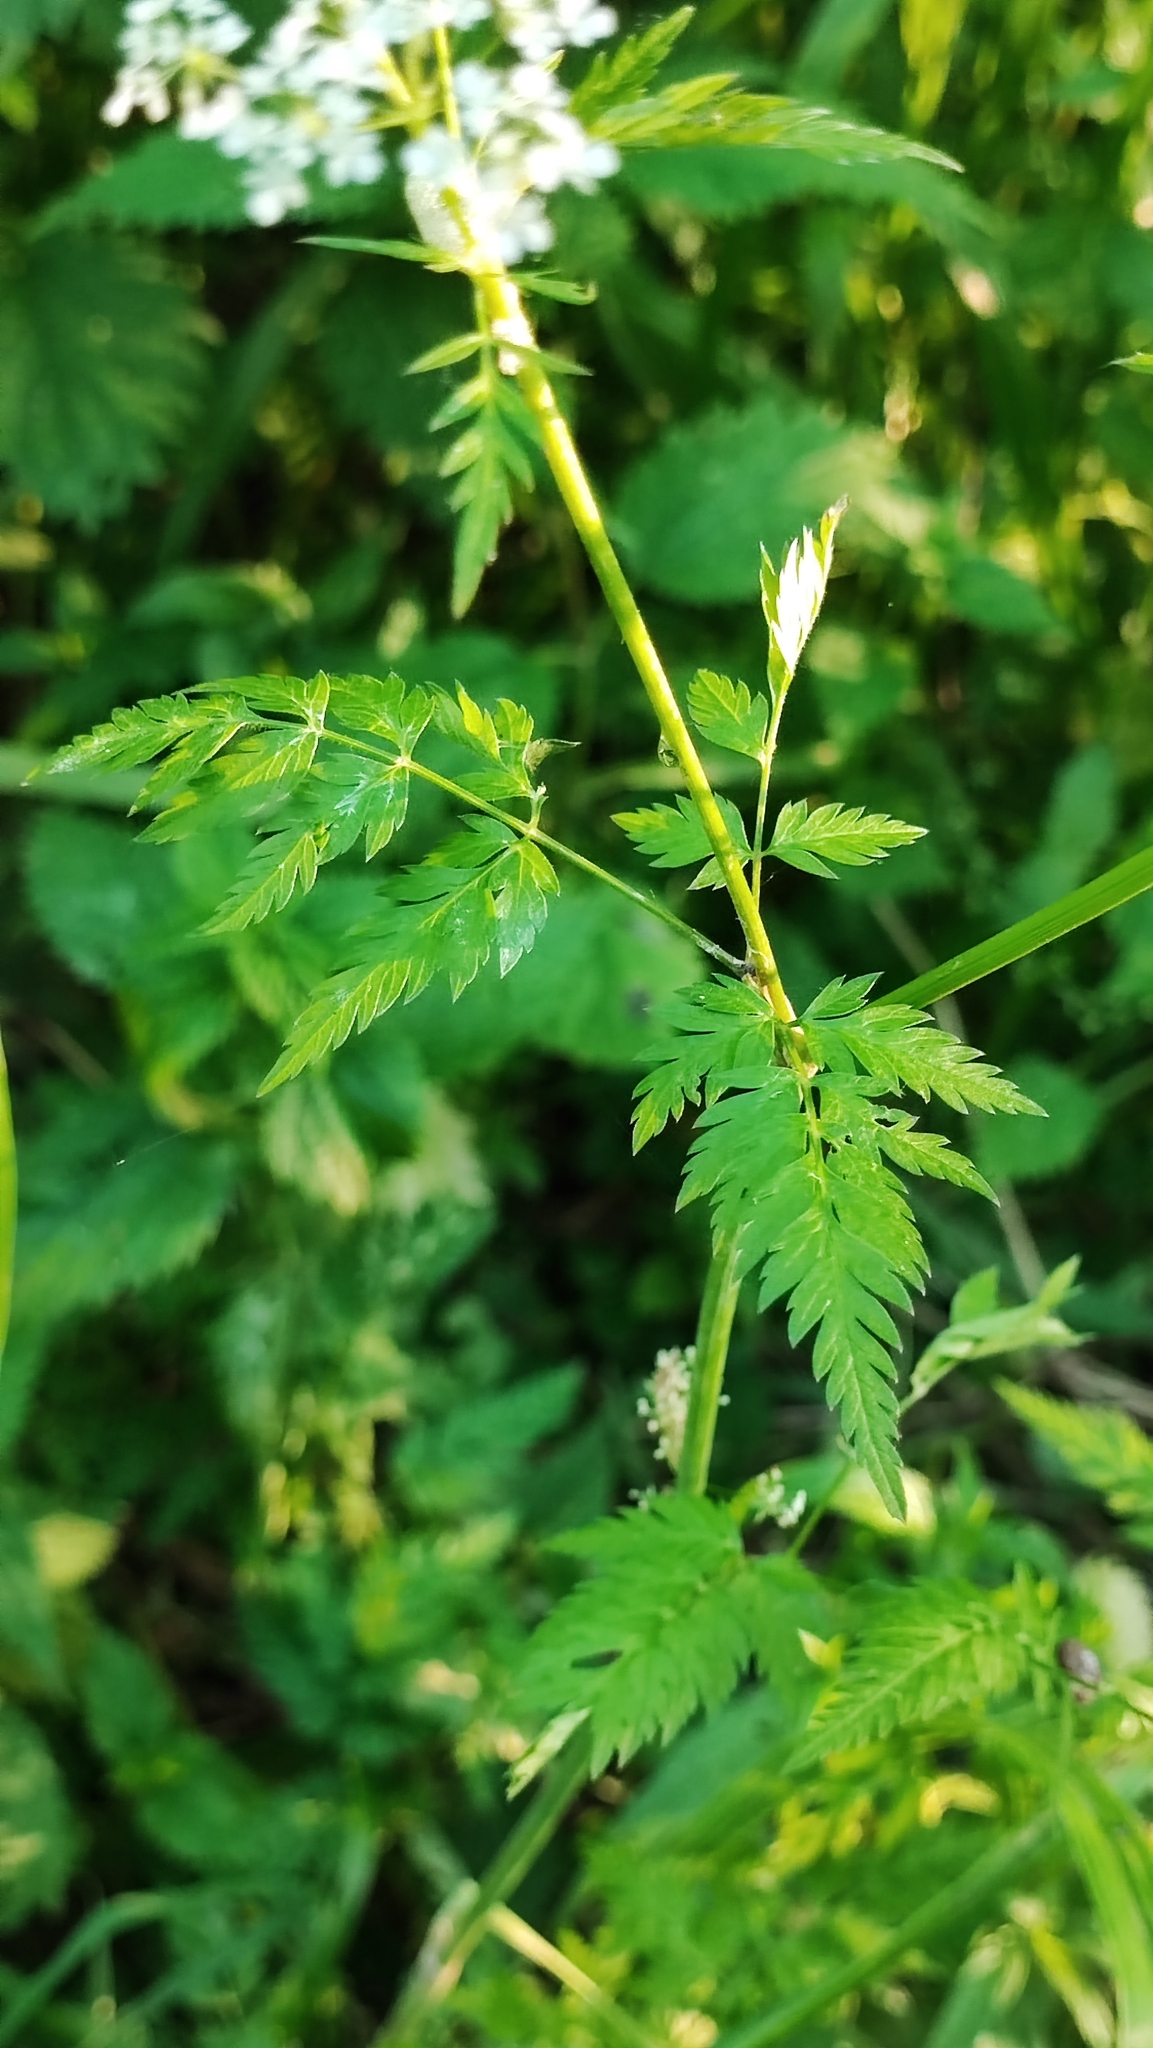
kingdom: Plantae
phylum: Tracheophyta
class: Magnoliopsida
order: Apiales
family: Apiaceae
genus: Anthriscus
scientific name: Anthriscus sylvestris
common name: Cow parsley
